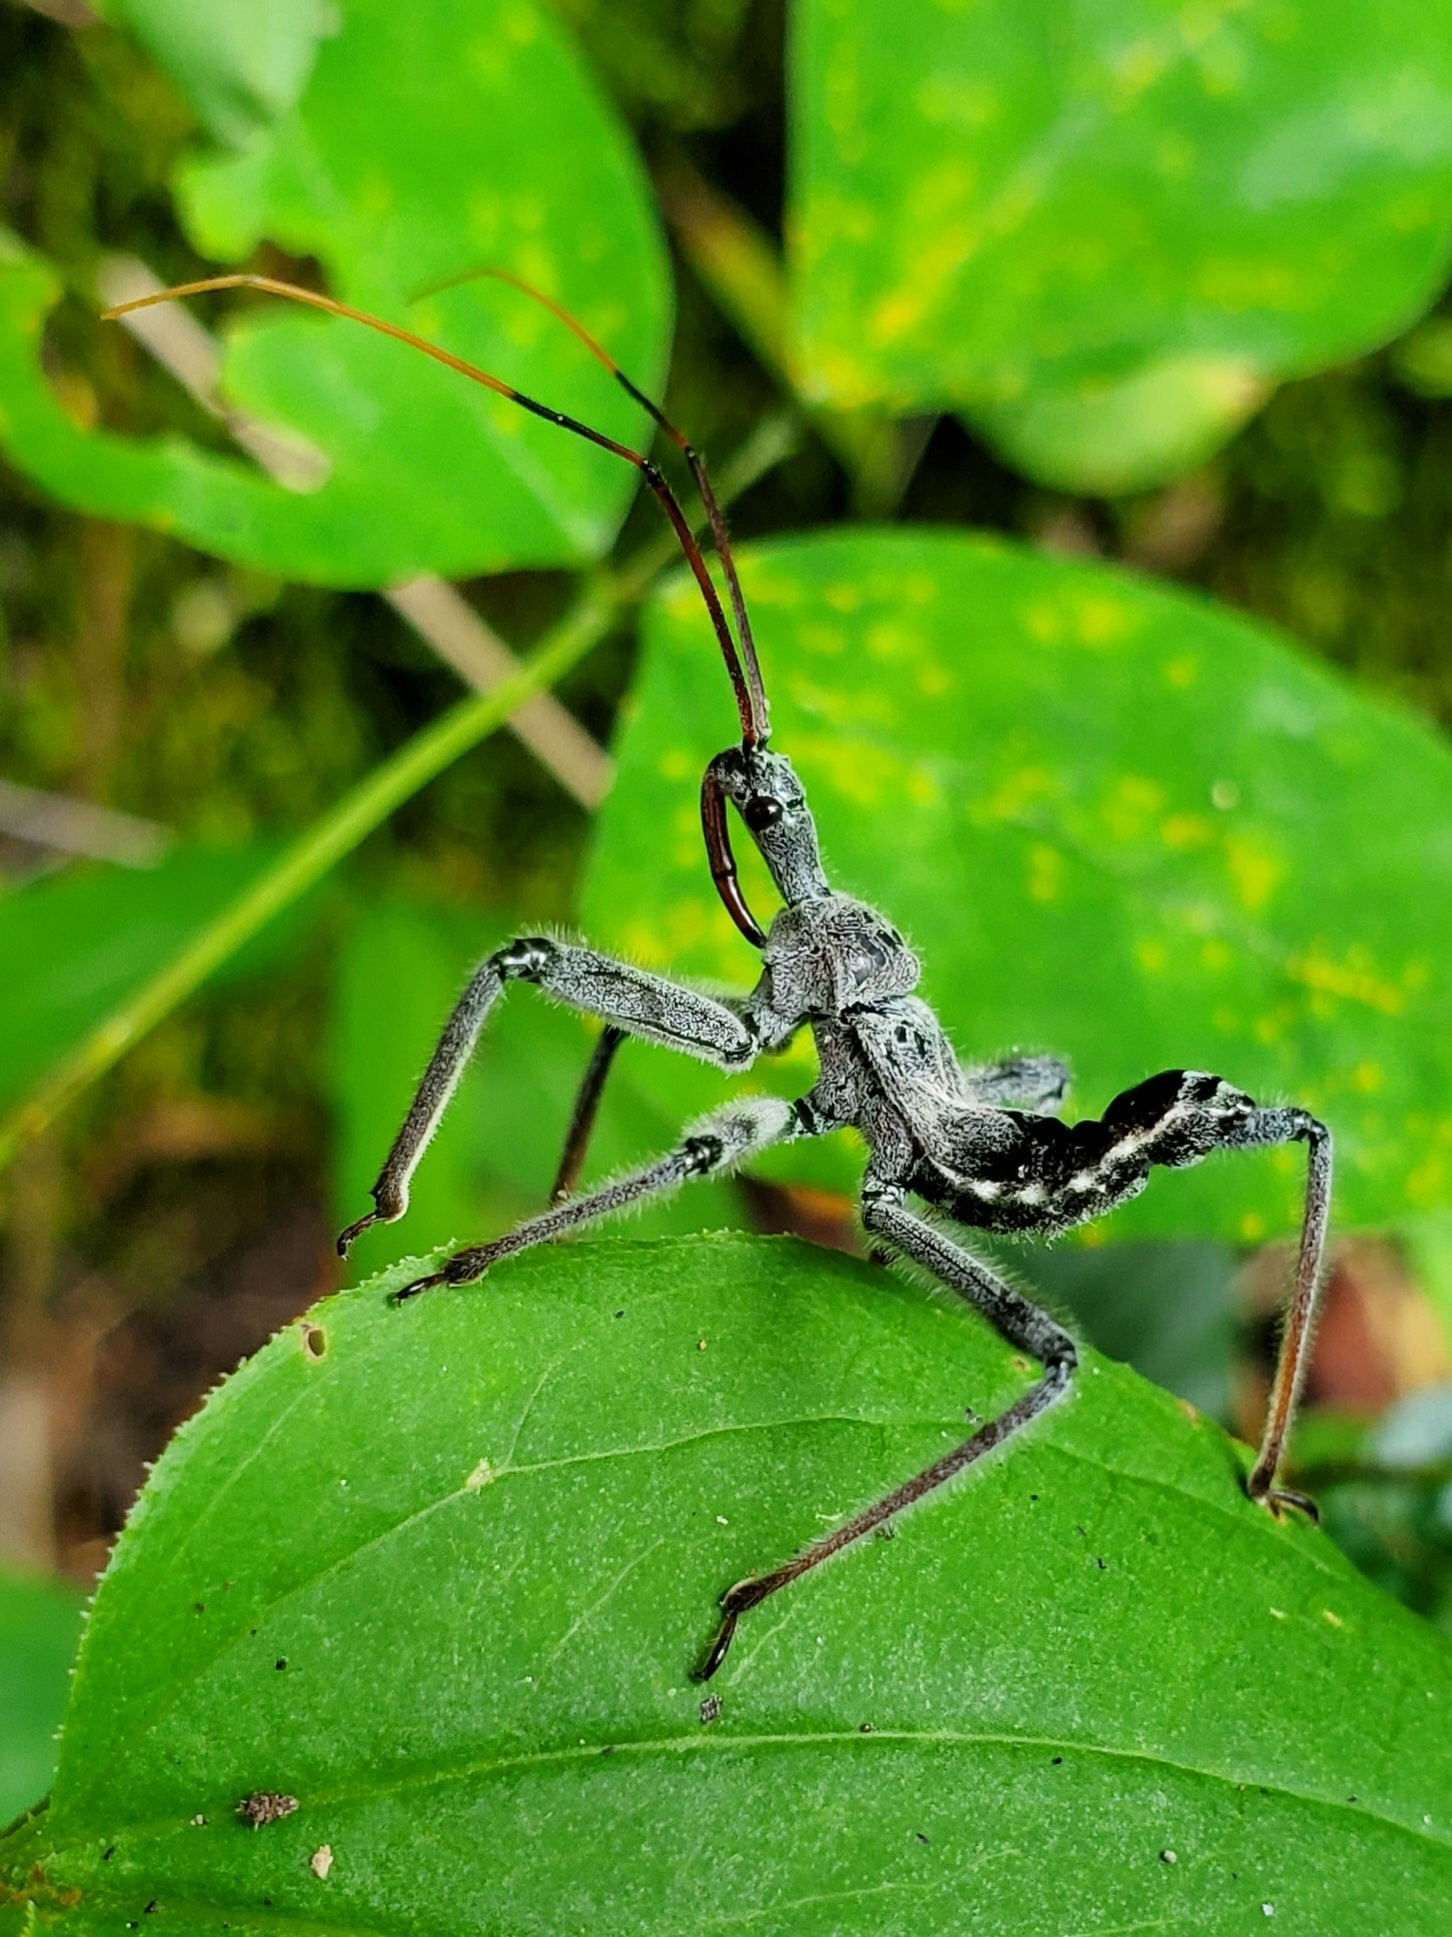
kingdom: Animalia
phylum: Arthropoda
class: Insecta
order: Hemiptera
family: Reduviidae
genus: Arilus
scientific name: Arilus cristatus
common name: North american wheel bug
